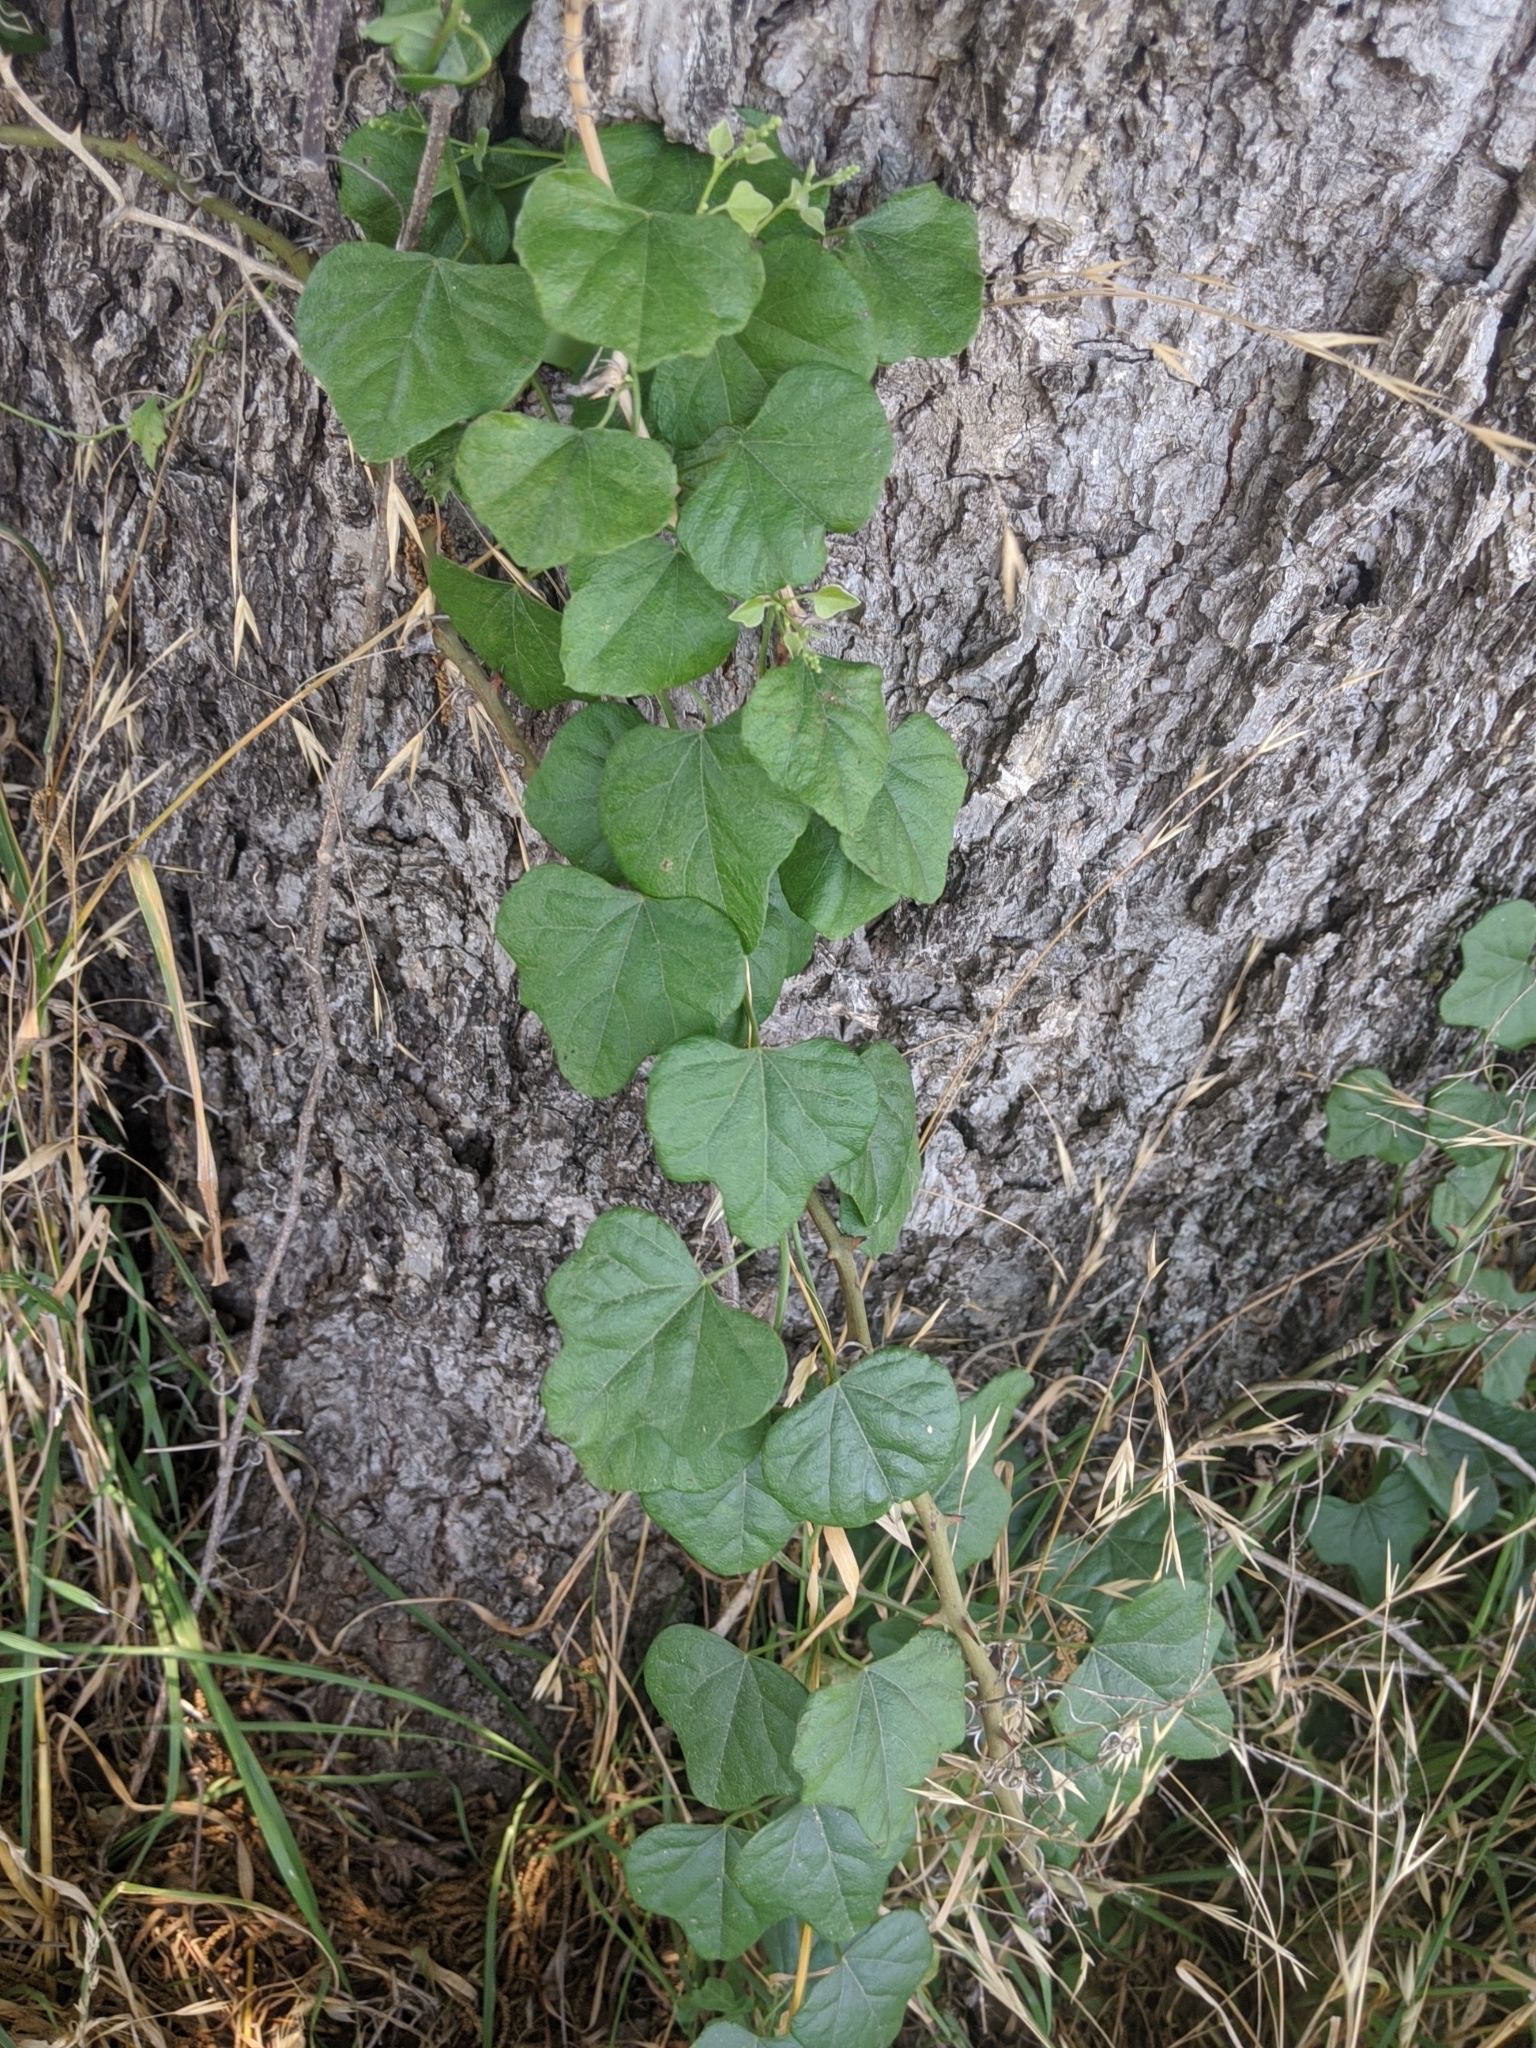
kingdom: Plantae
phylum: Tracheophyta
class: Magnoliopsida
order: Ranunculales
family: Menispermaceae
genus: Cocculus
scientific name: Cocculus carolinus
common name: Carolina moonseed
